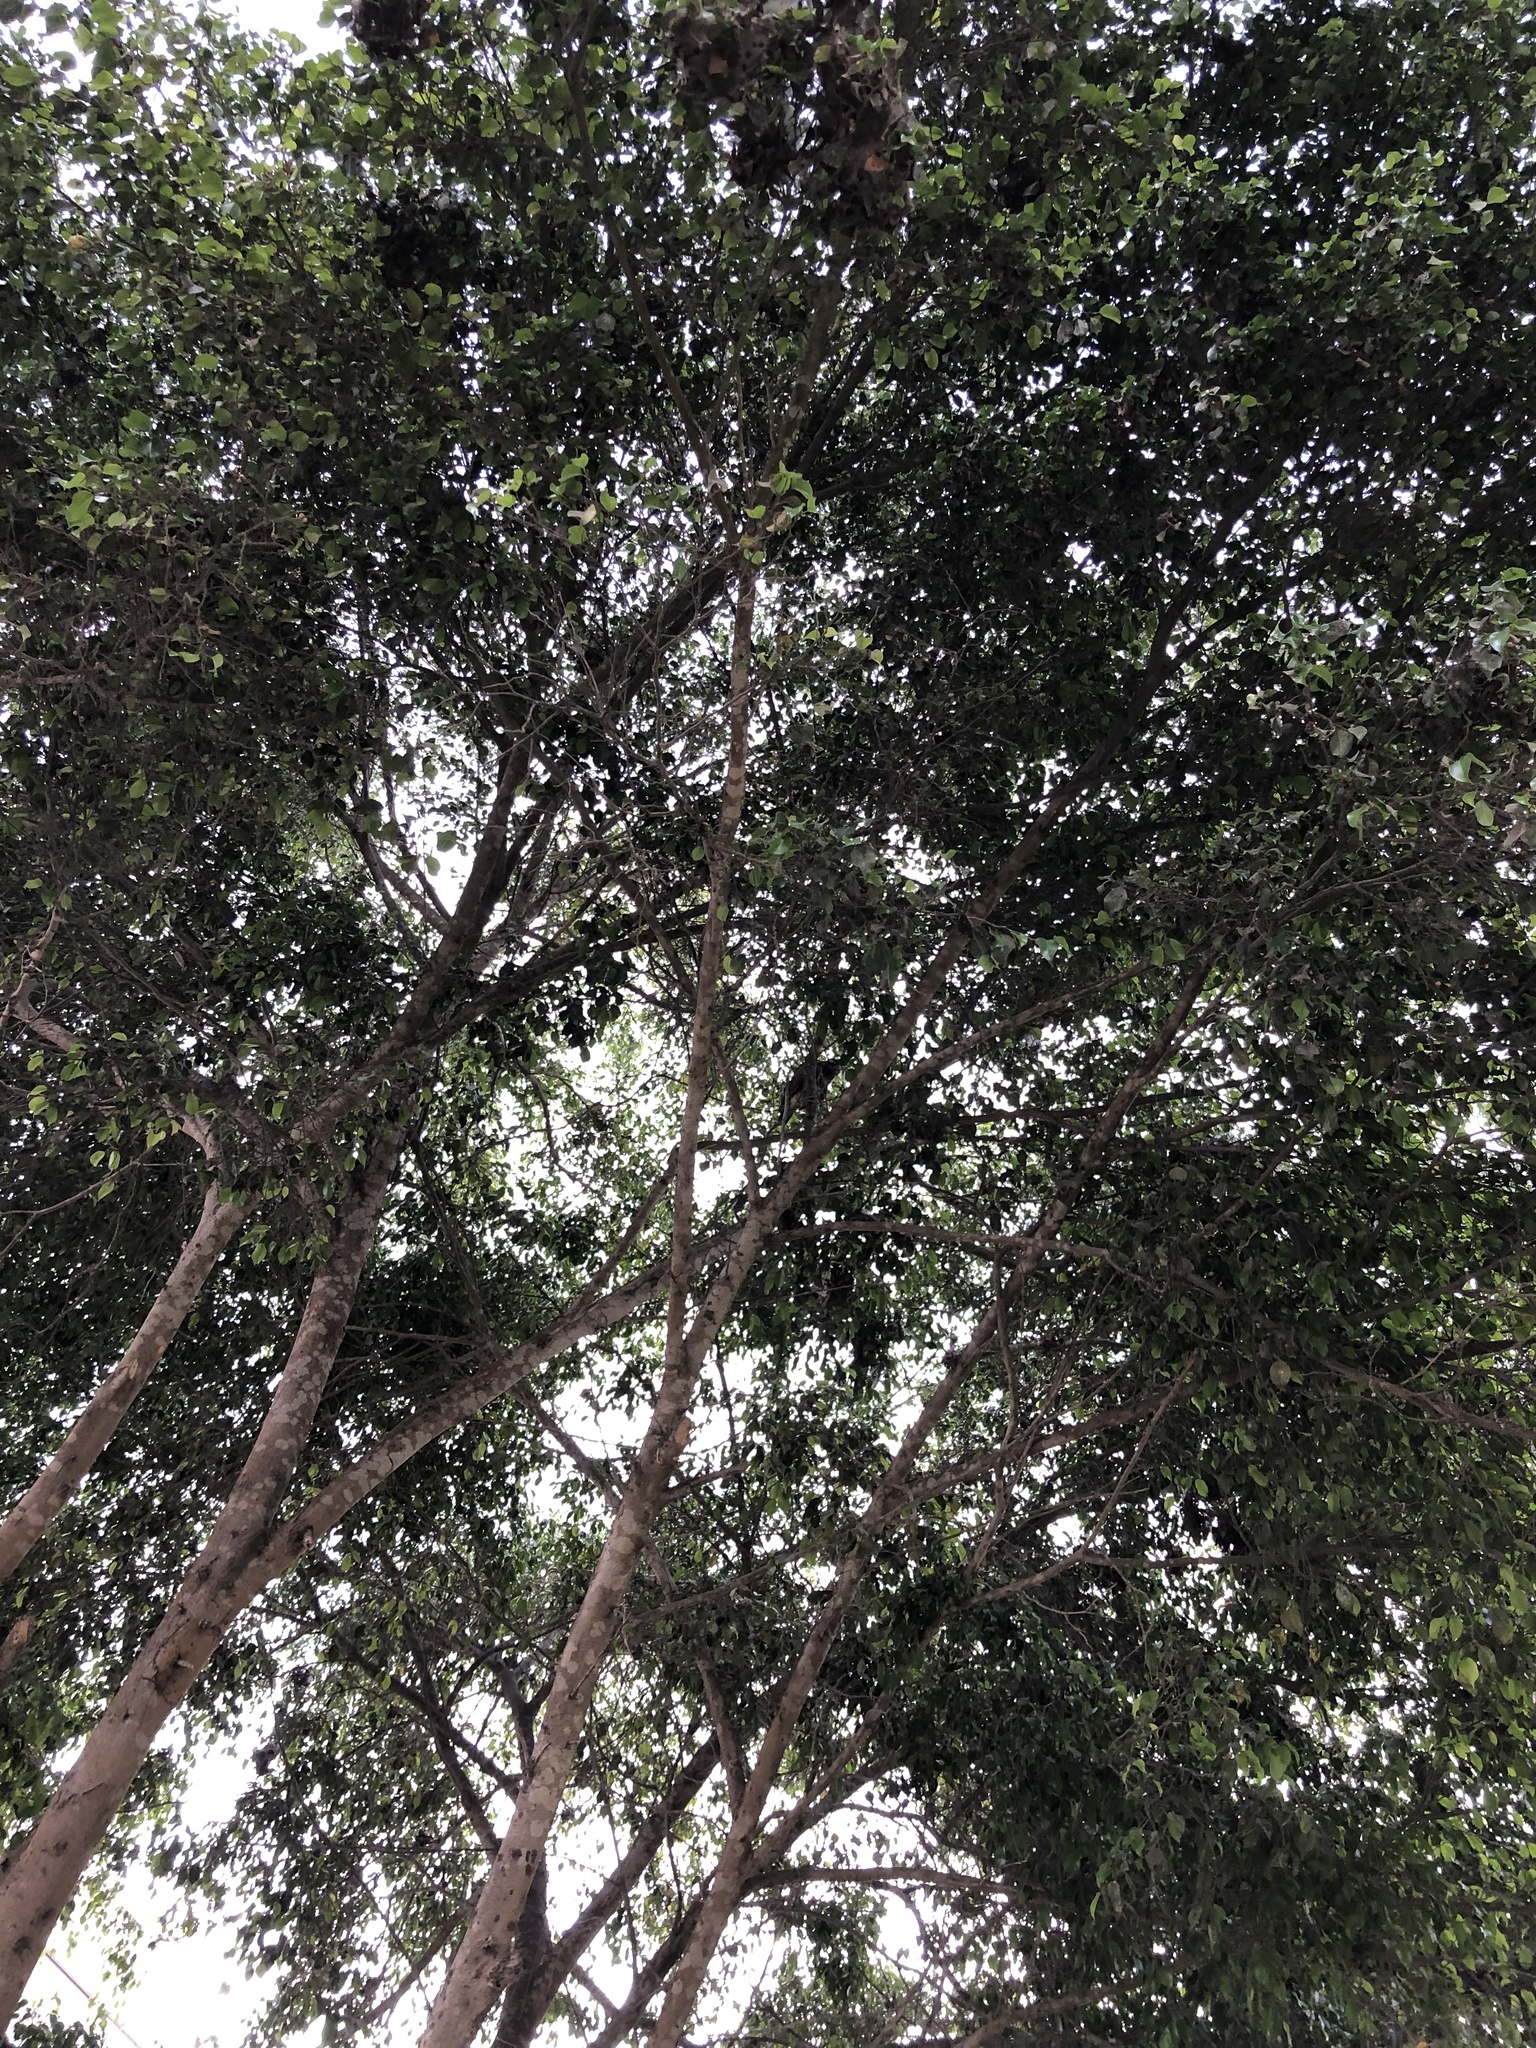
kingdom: Animalia
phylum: Chordata
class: Aves
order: Accipitriformes
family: Accipitridae
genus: Parabuteo
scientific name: Parabuteo unicinctus
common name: Harris's hawk
